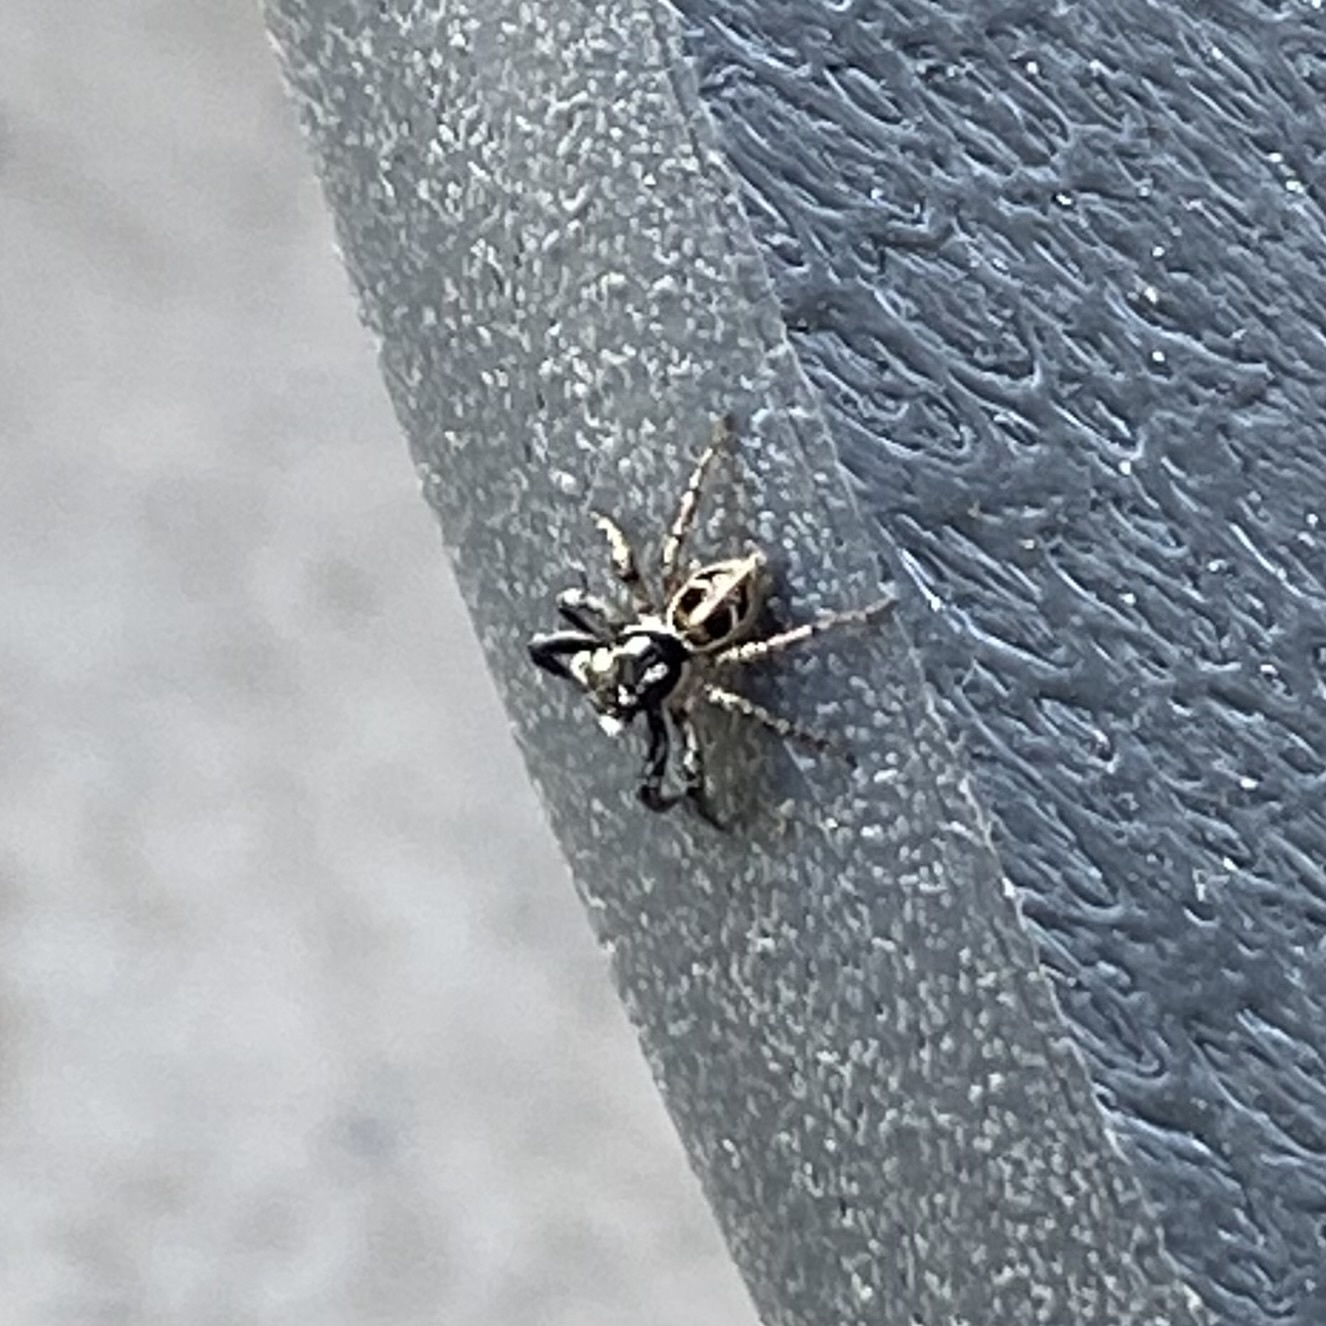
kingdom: Animalia
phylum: Arthropoda
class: Arachnida
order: Araneae
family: Salticidae
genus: Anasaitis
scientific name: Anasaitis canosa
